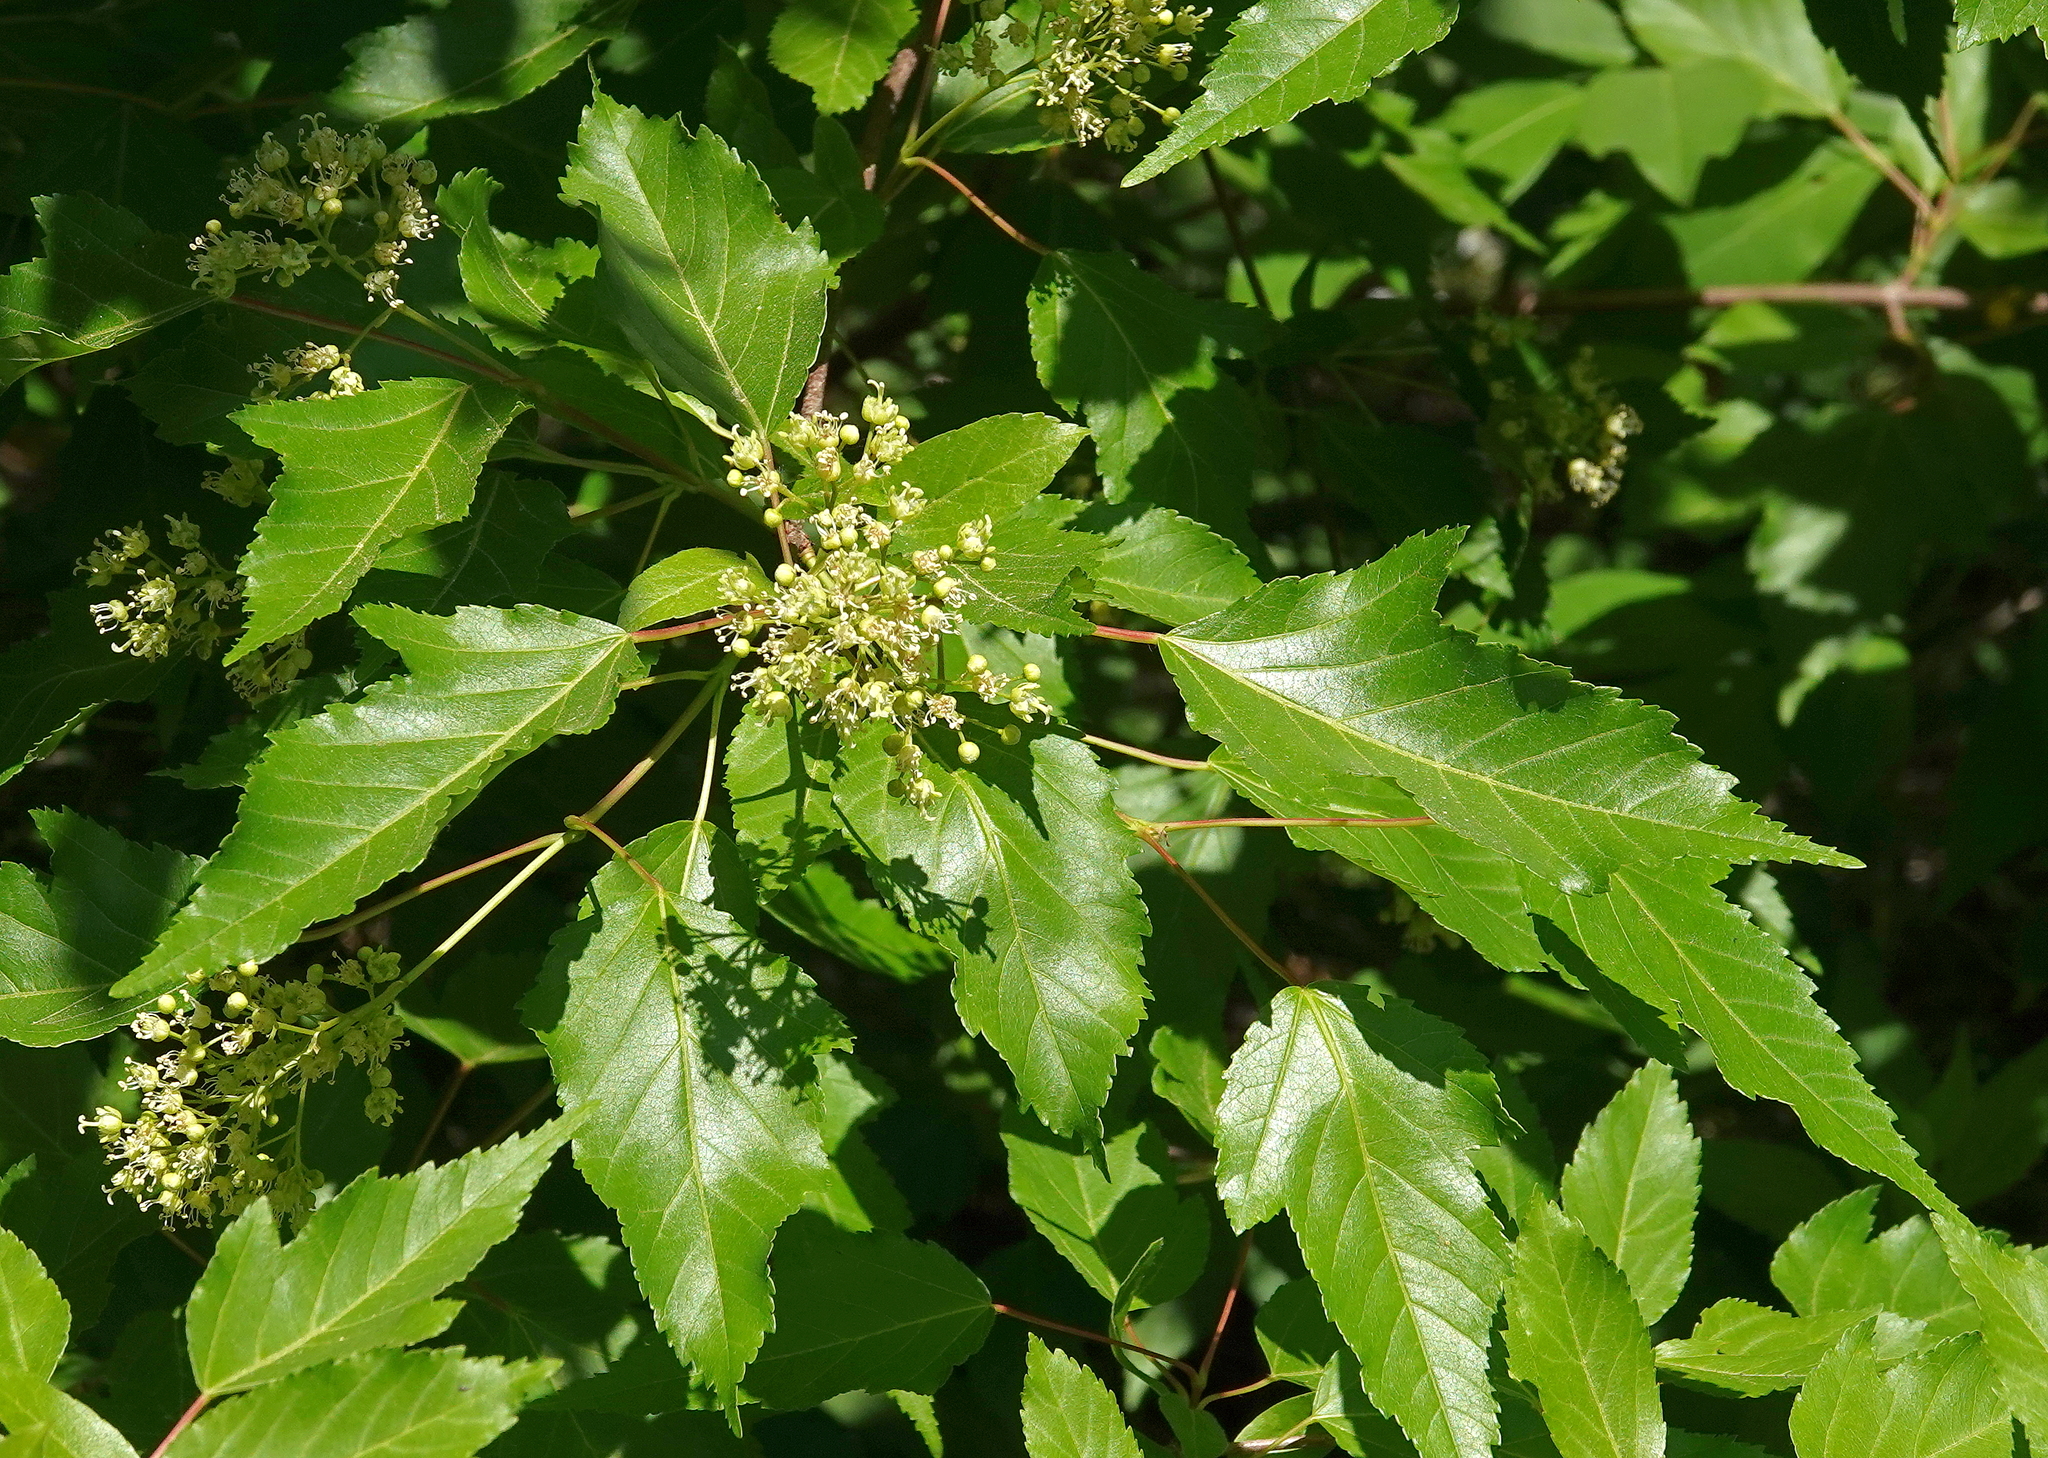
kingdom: Plantae
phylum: Tracheophyta
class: Magnoliopsida
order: Sapindales
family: Sapindaceae
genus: Acer
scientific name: Acer tataricum
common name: Tartar maple
